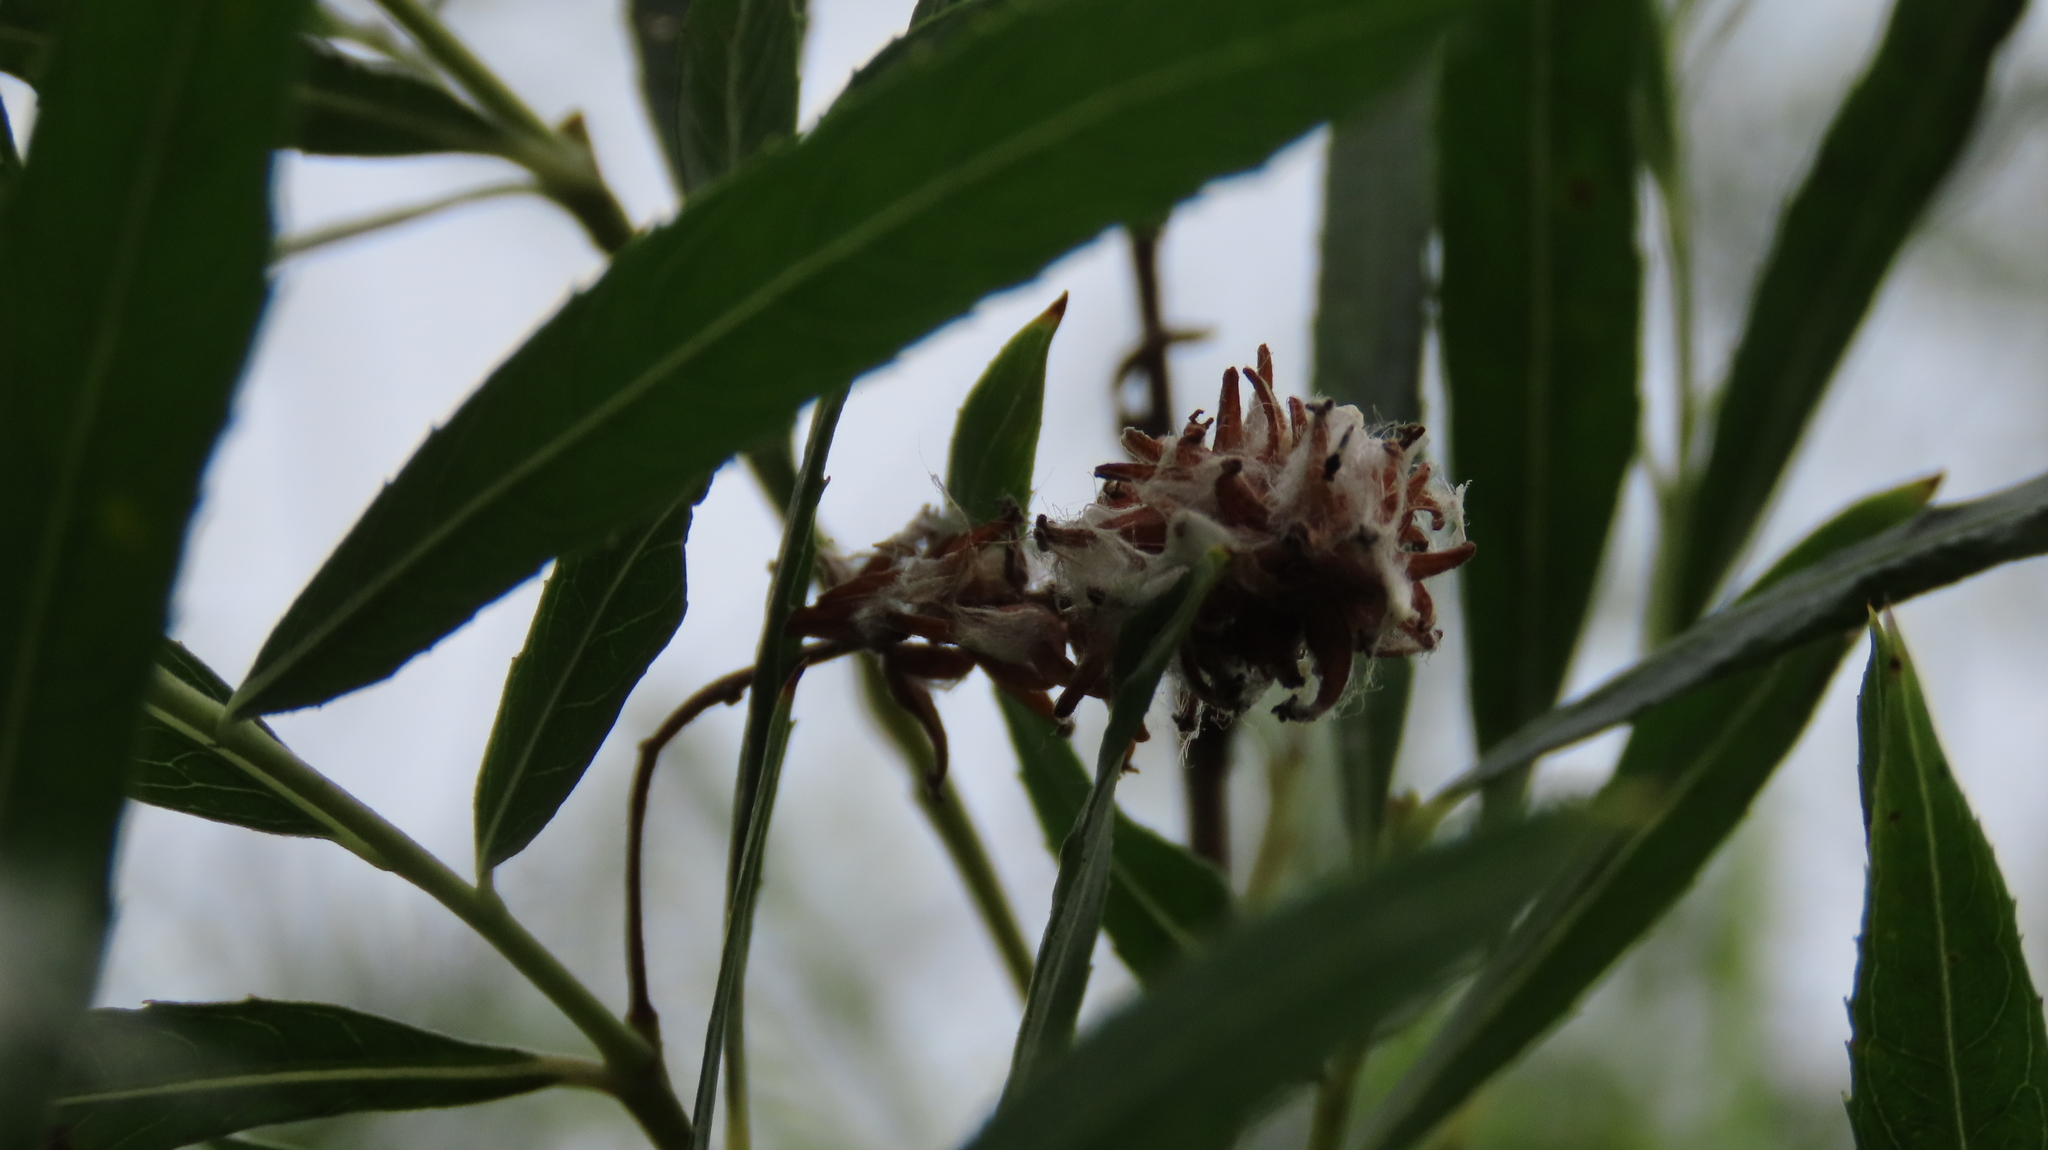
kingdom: Plantae
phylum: Tracheophyta
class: Magnoliopsida
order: Malpighiales
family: Salicaceae
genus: Salix
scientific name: Salix interior
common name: Sandbar willow
